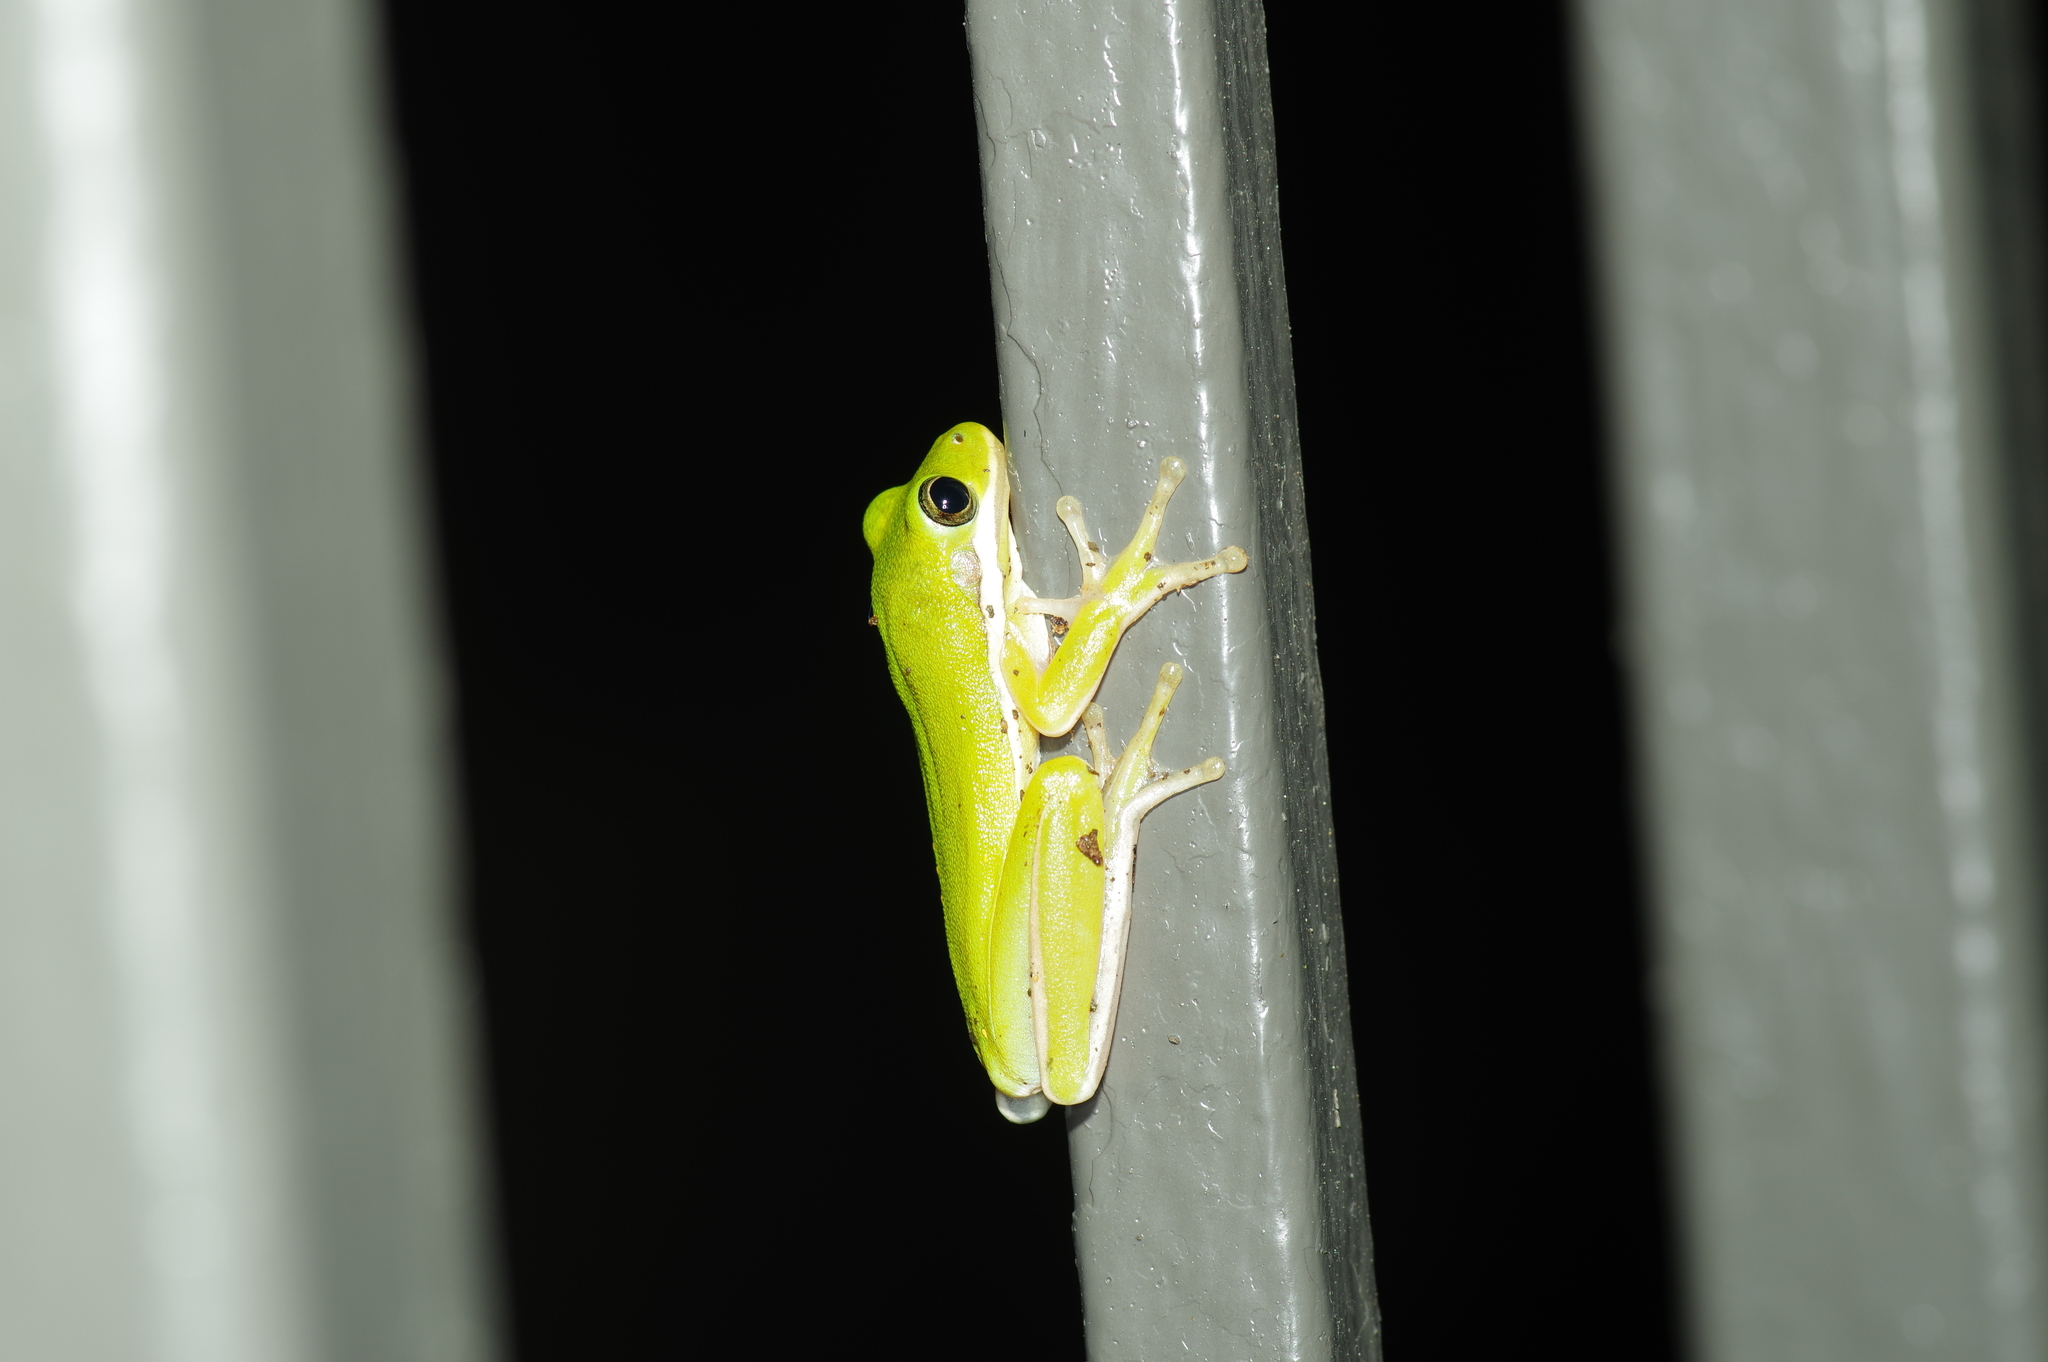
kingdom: Animalia
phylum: Chordata
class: Amphibia
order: Anura
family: Hylidae
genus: Dryophytes
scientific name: Dryophytes cinereus
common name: Green treefrog
